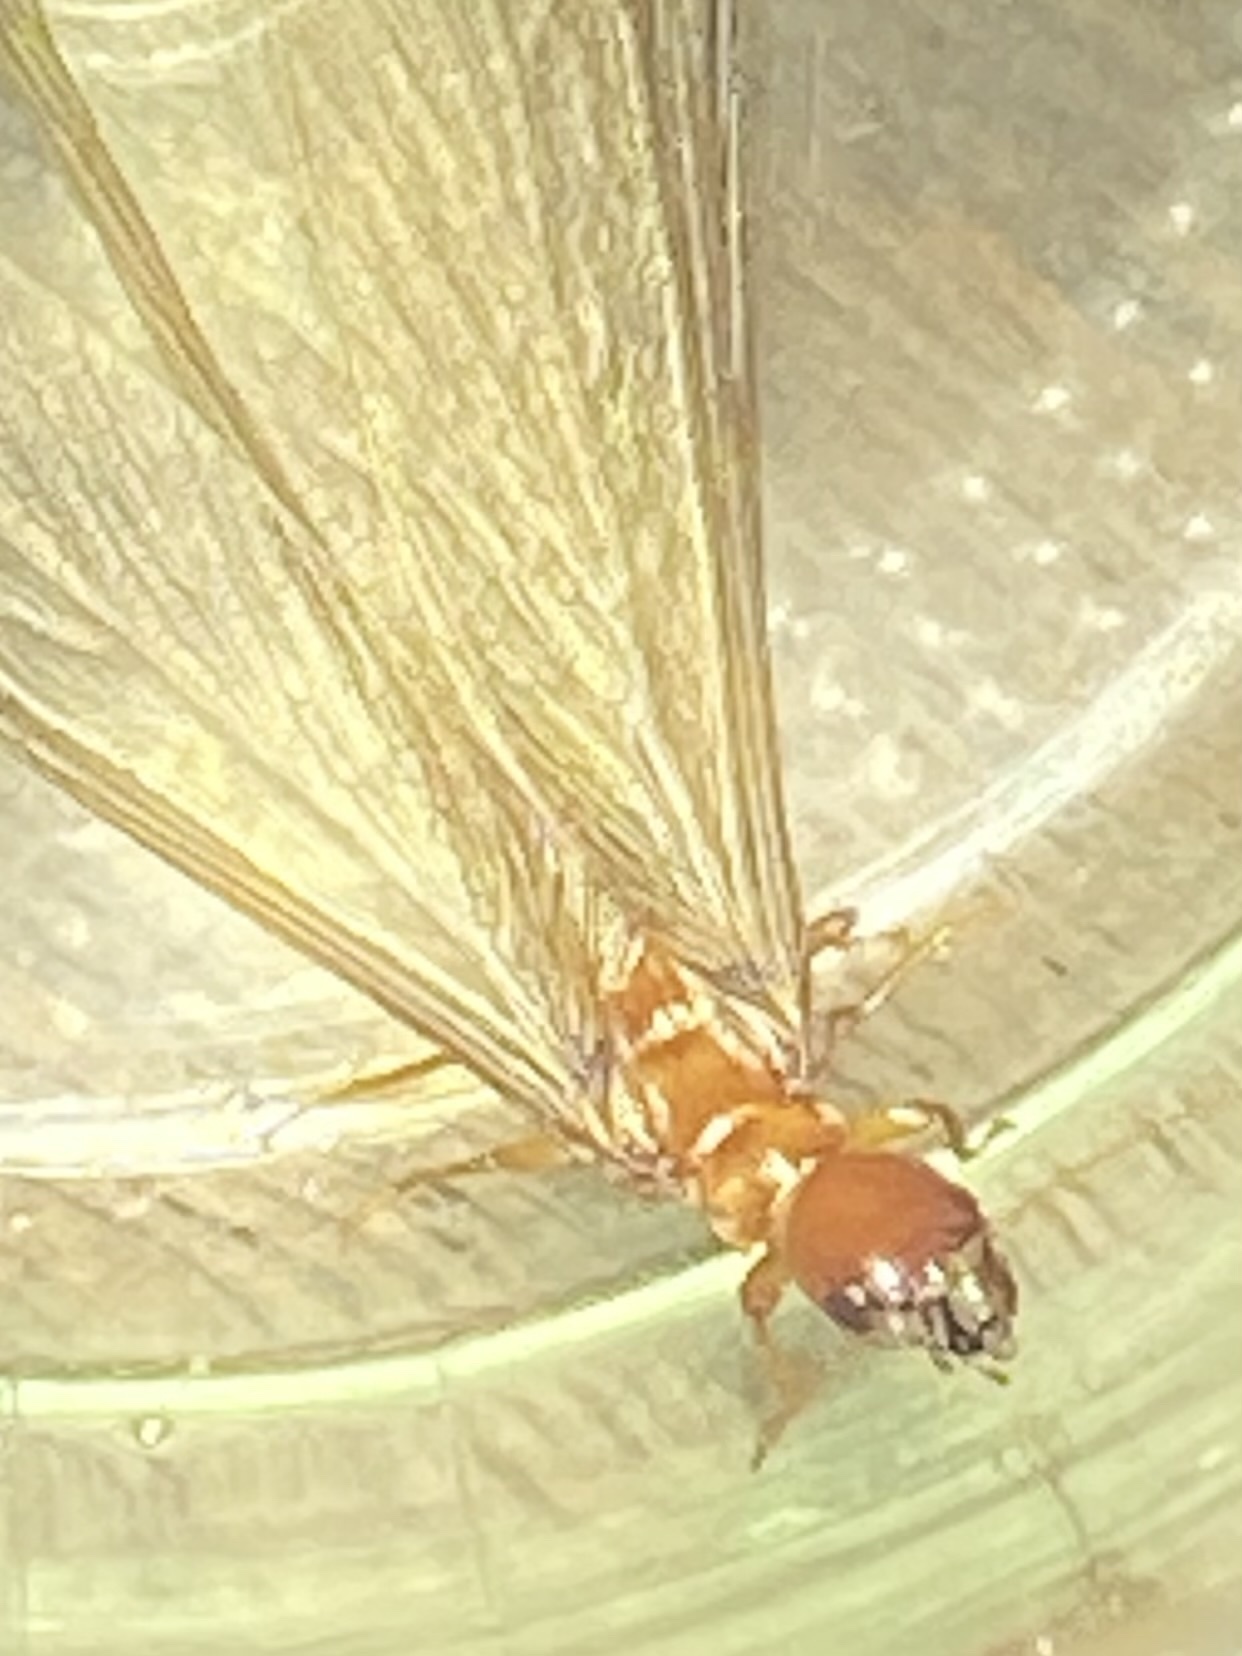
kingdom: Animalia
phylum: Arthropoda
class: Insecta
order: Blattodea
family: Archotermopsidae
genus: Zootermopsis
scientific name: Zootermopsis angusticollis
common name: Rottenwood termite
